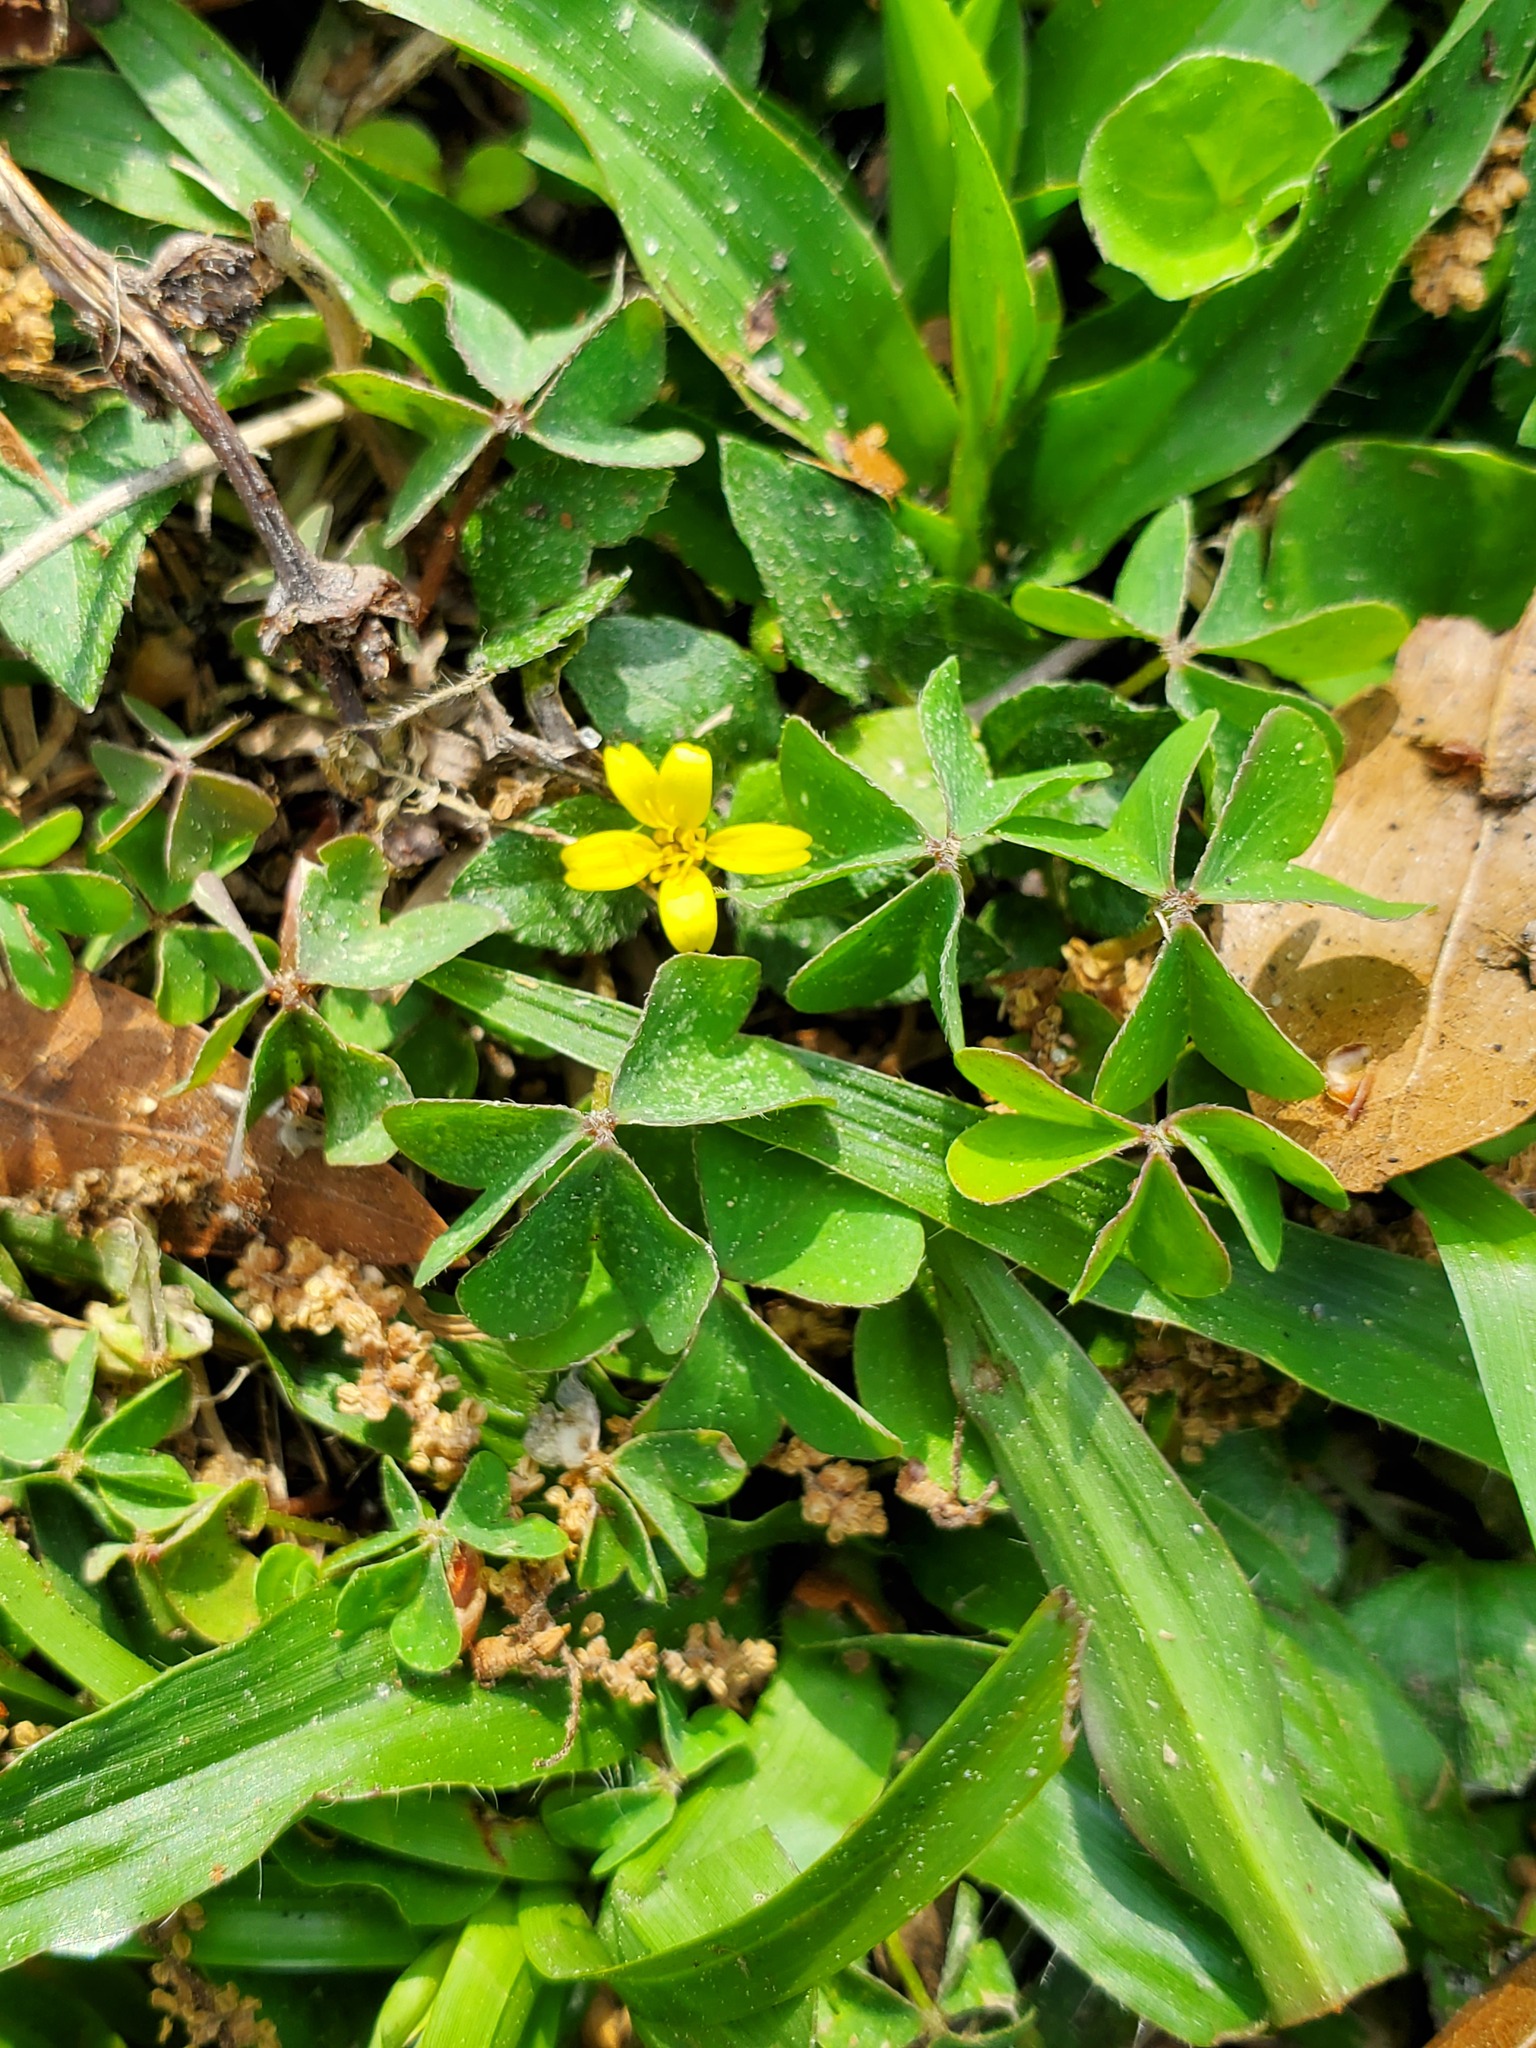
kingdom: Plantae
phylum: Tracheophyta
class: Magnoliopsida
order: Asterales
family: Asteraceae
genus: Calyptocarpus
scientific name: Calyptocarpus vialis
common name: Straggler daisy
